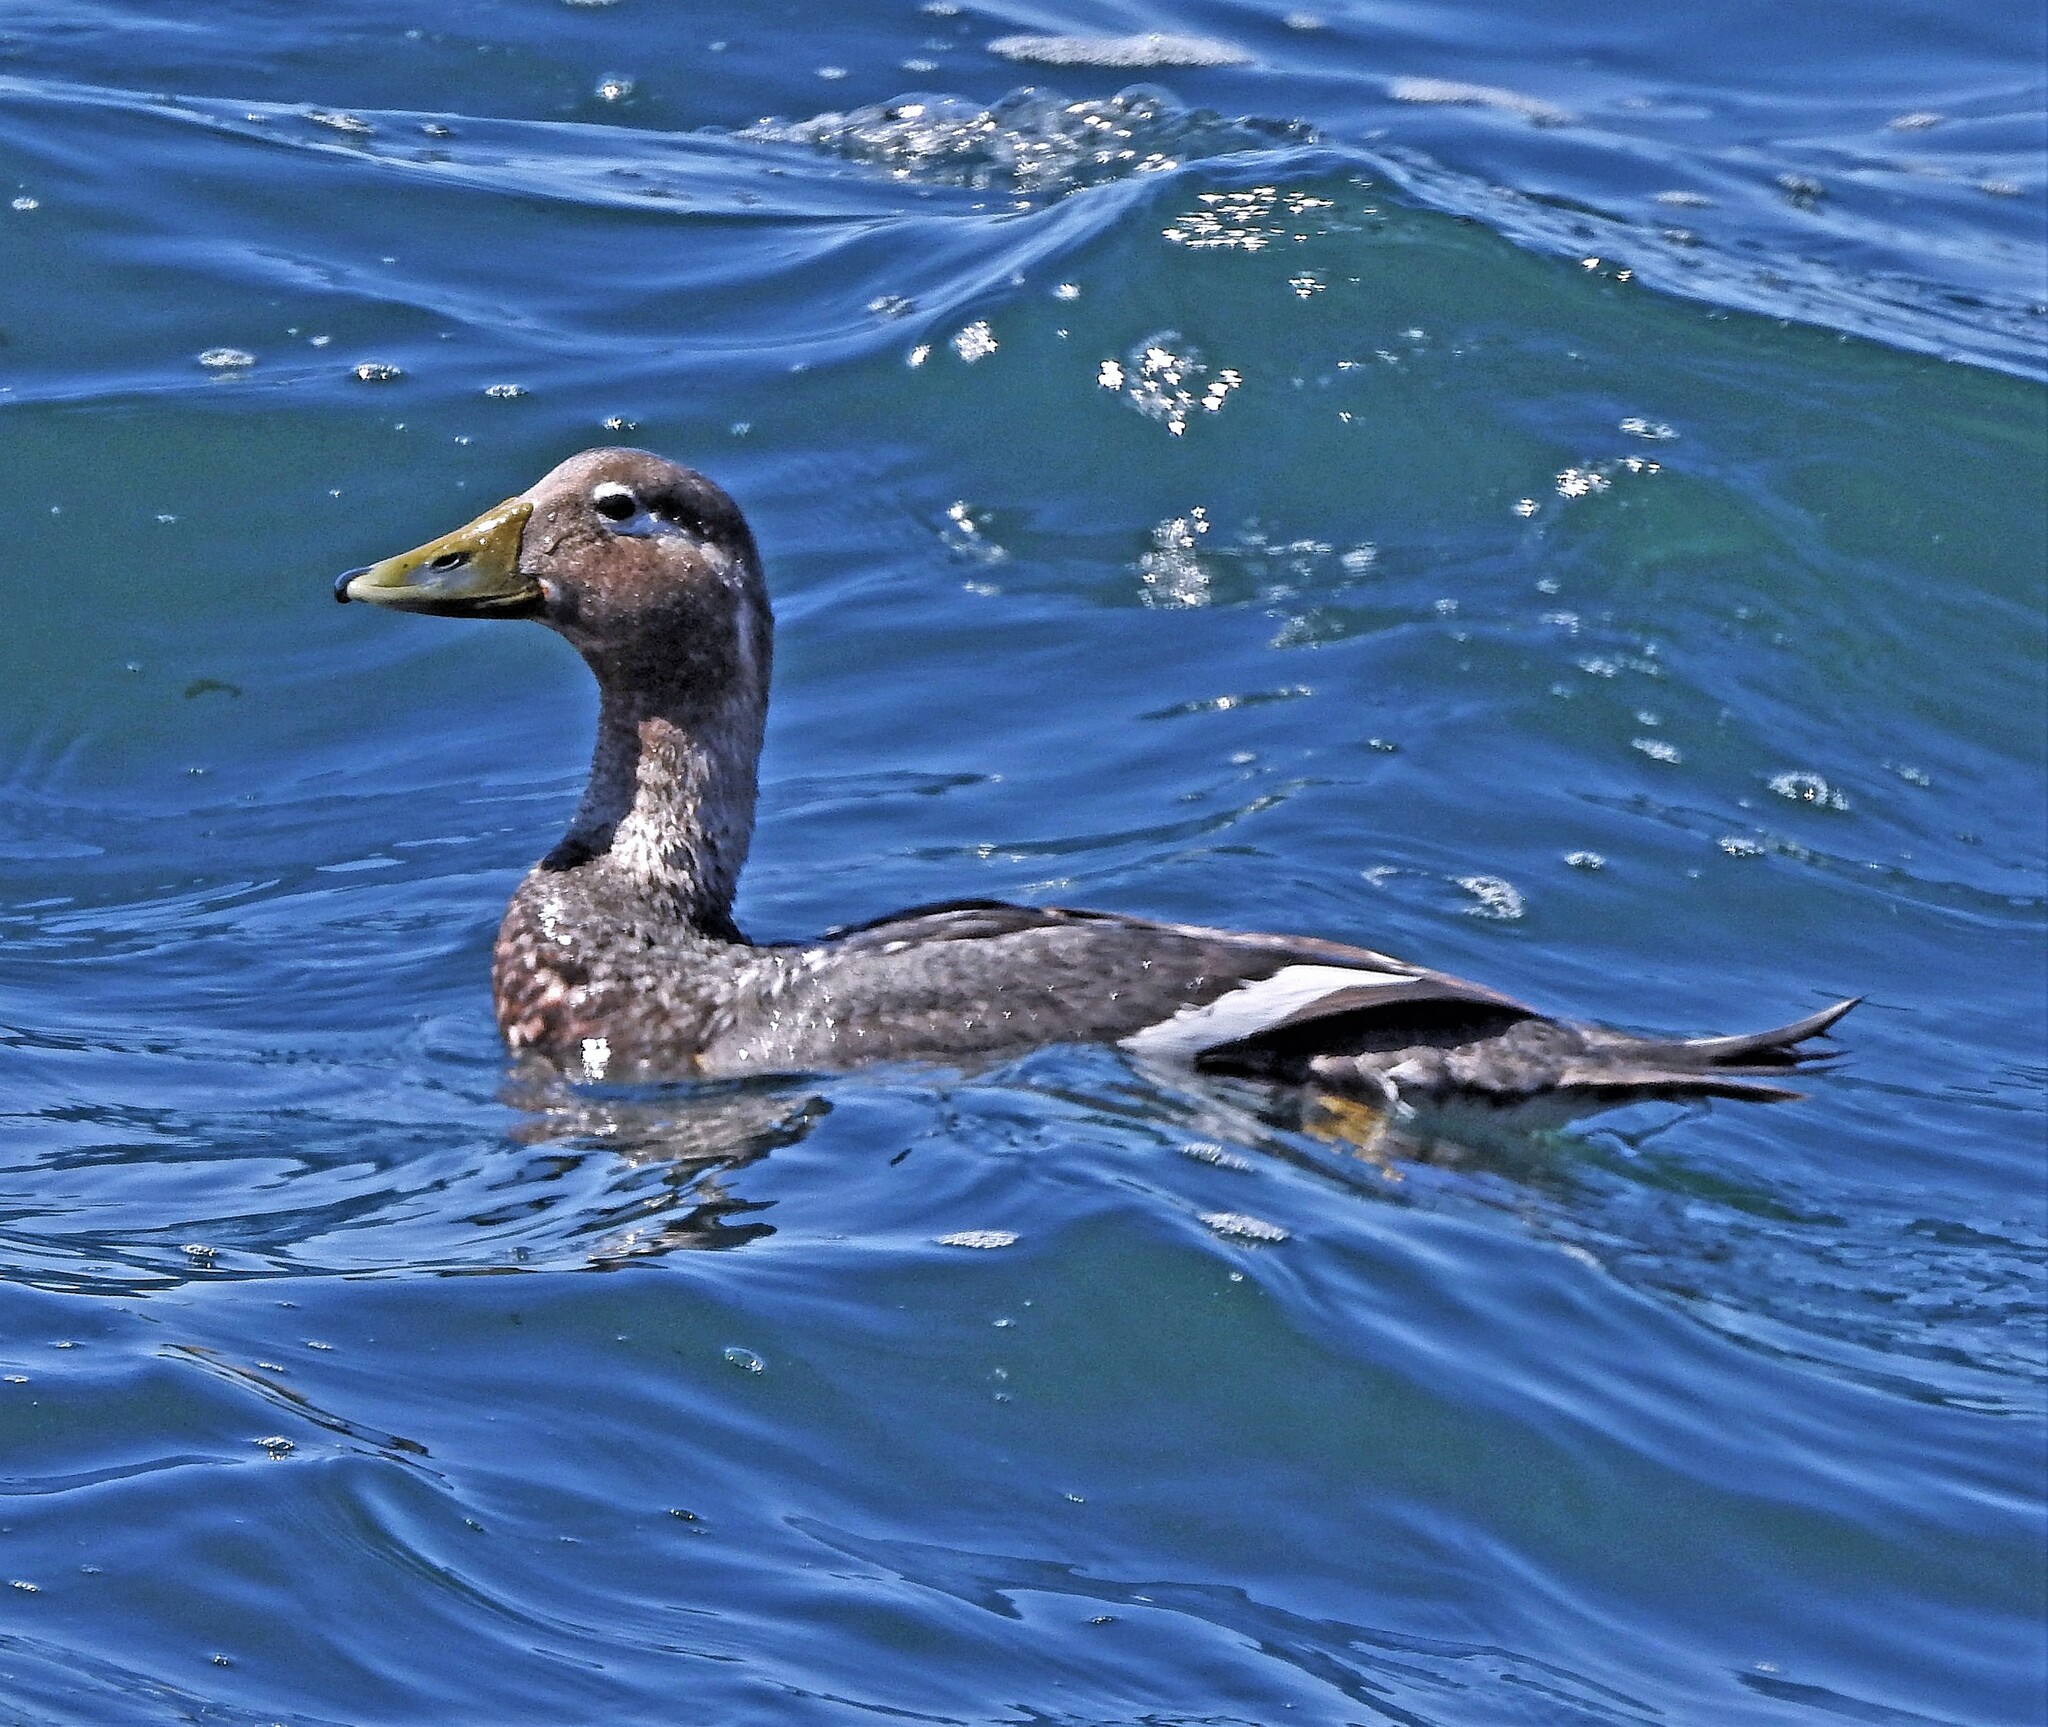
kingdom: Animalia
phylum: Chordata
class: Aves
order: Anseriformes
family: Anatidae
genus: Tachyeres
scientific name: Tachyeres patachonicus
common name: Flying steamer duck
